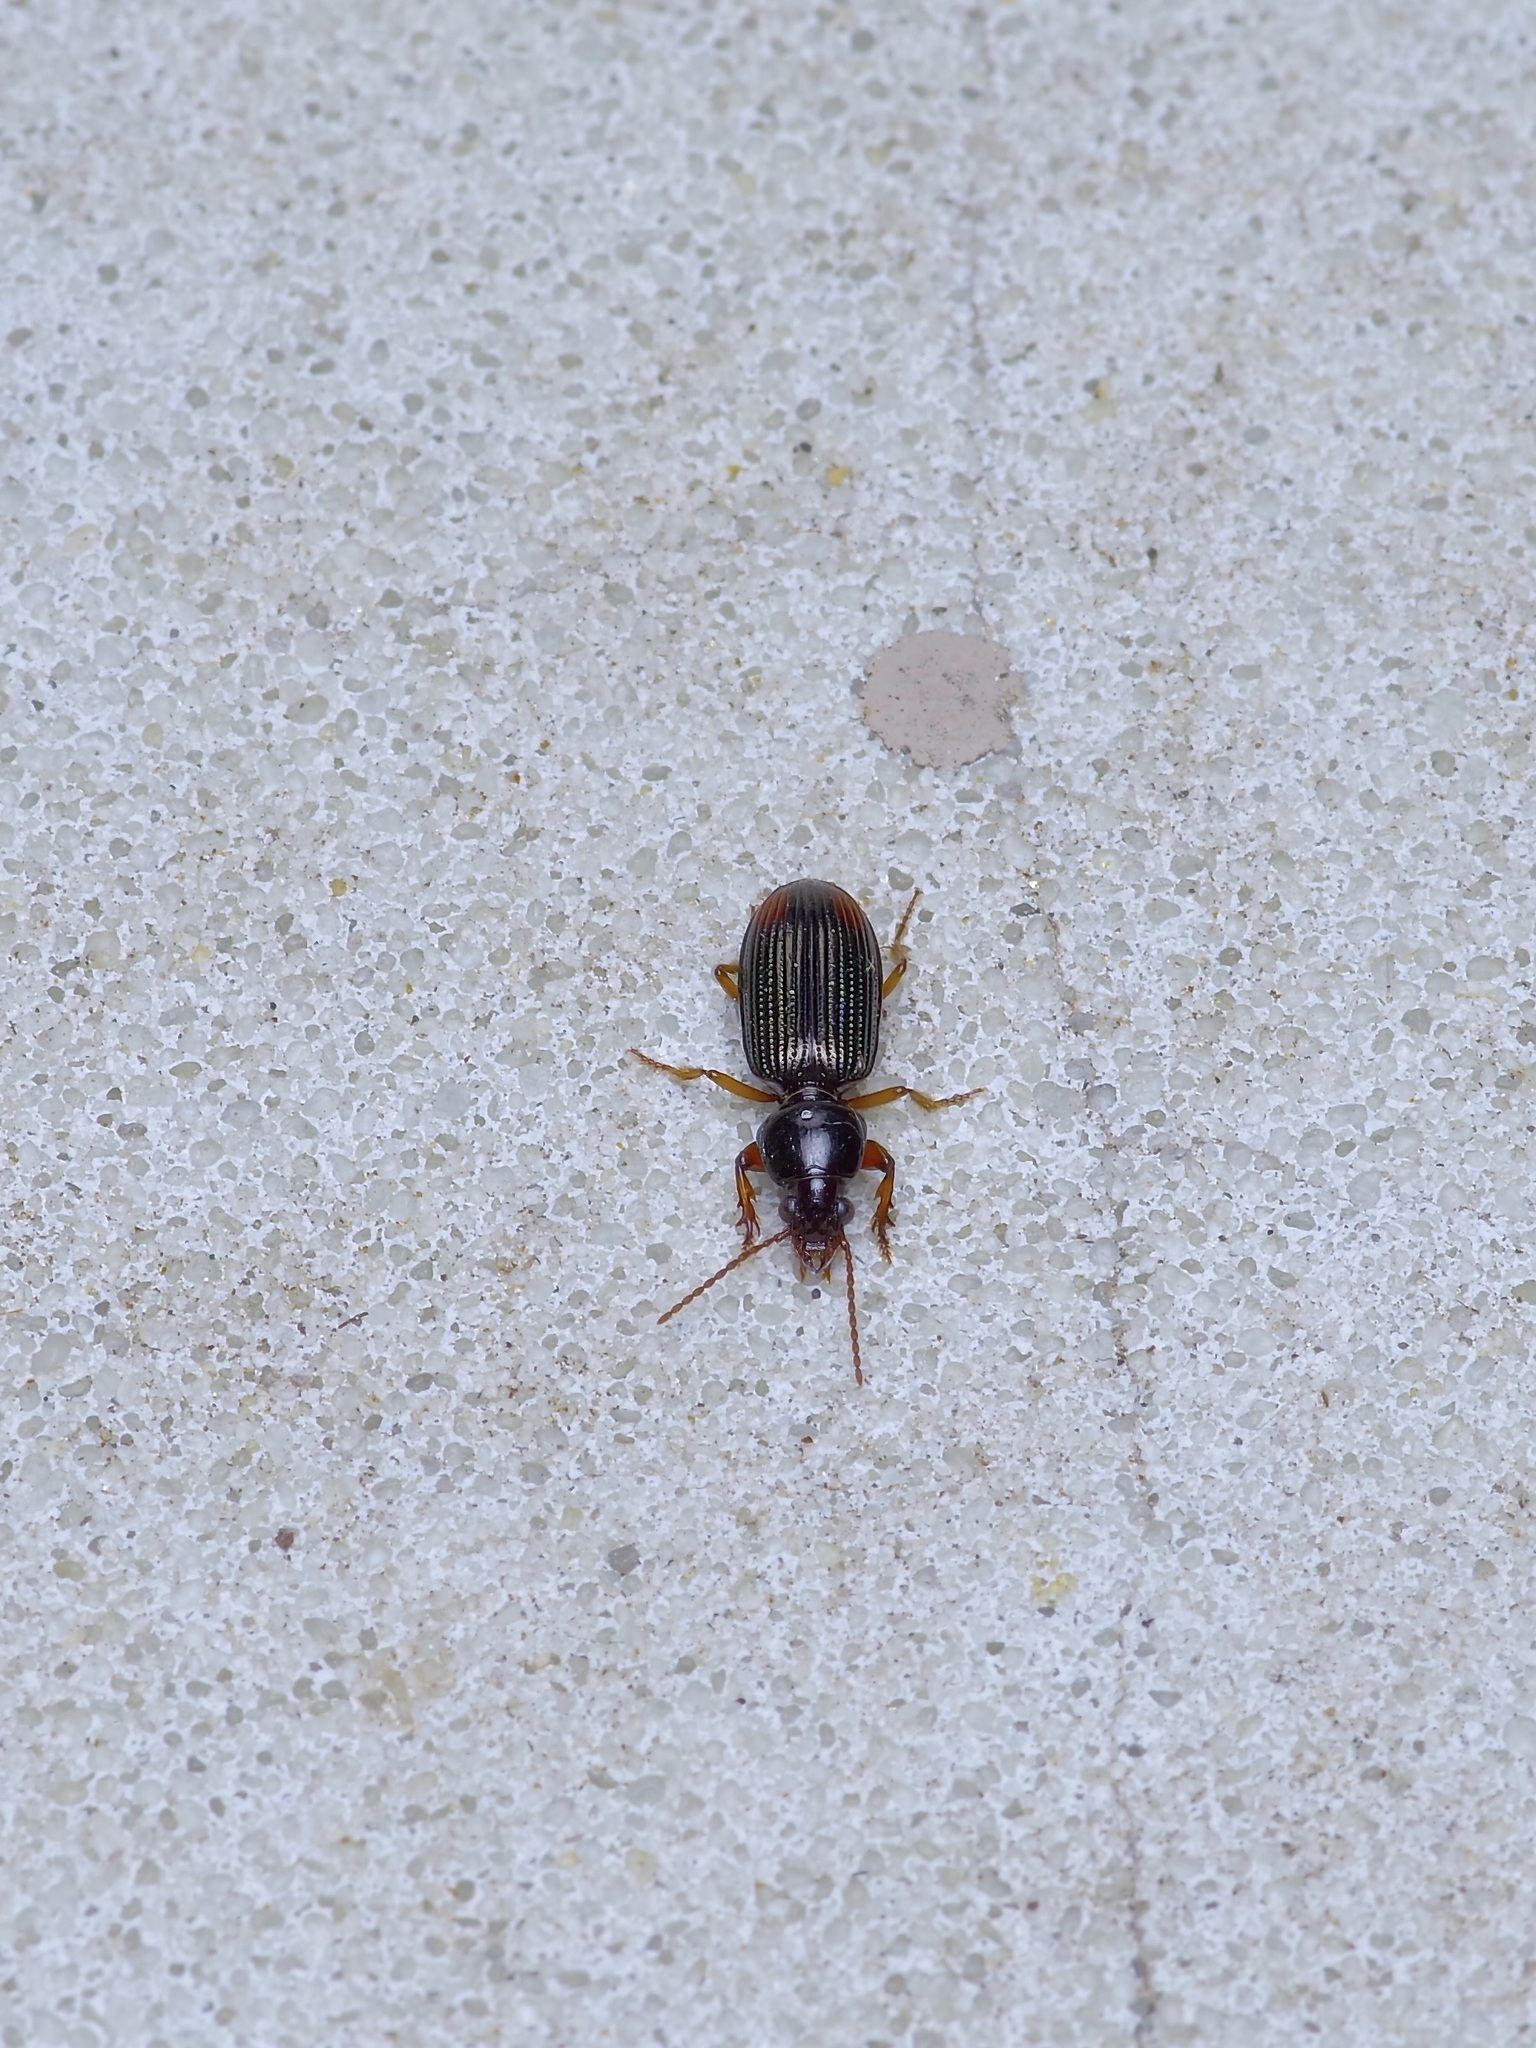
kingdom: Animalia
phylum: Arthropoda
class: Insecta
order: Coleoptera
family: Carabidae
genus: Aspidoglossa
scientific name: Aspidoglossa subangulata
